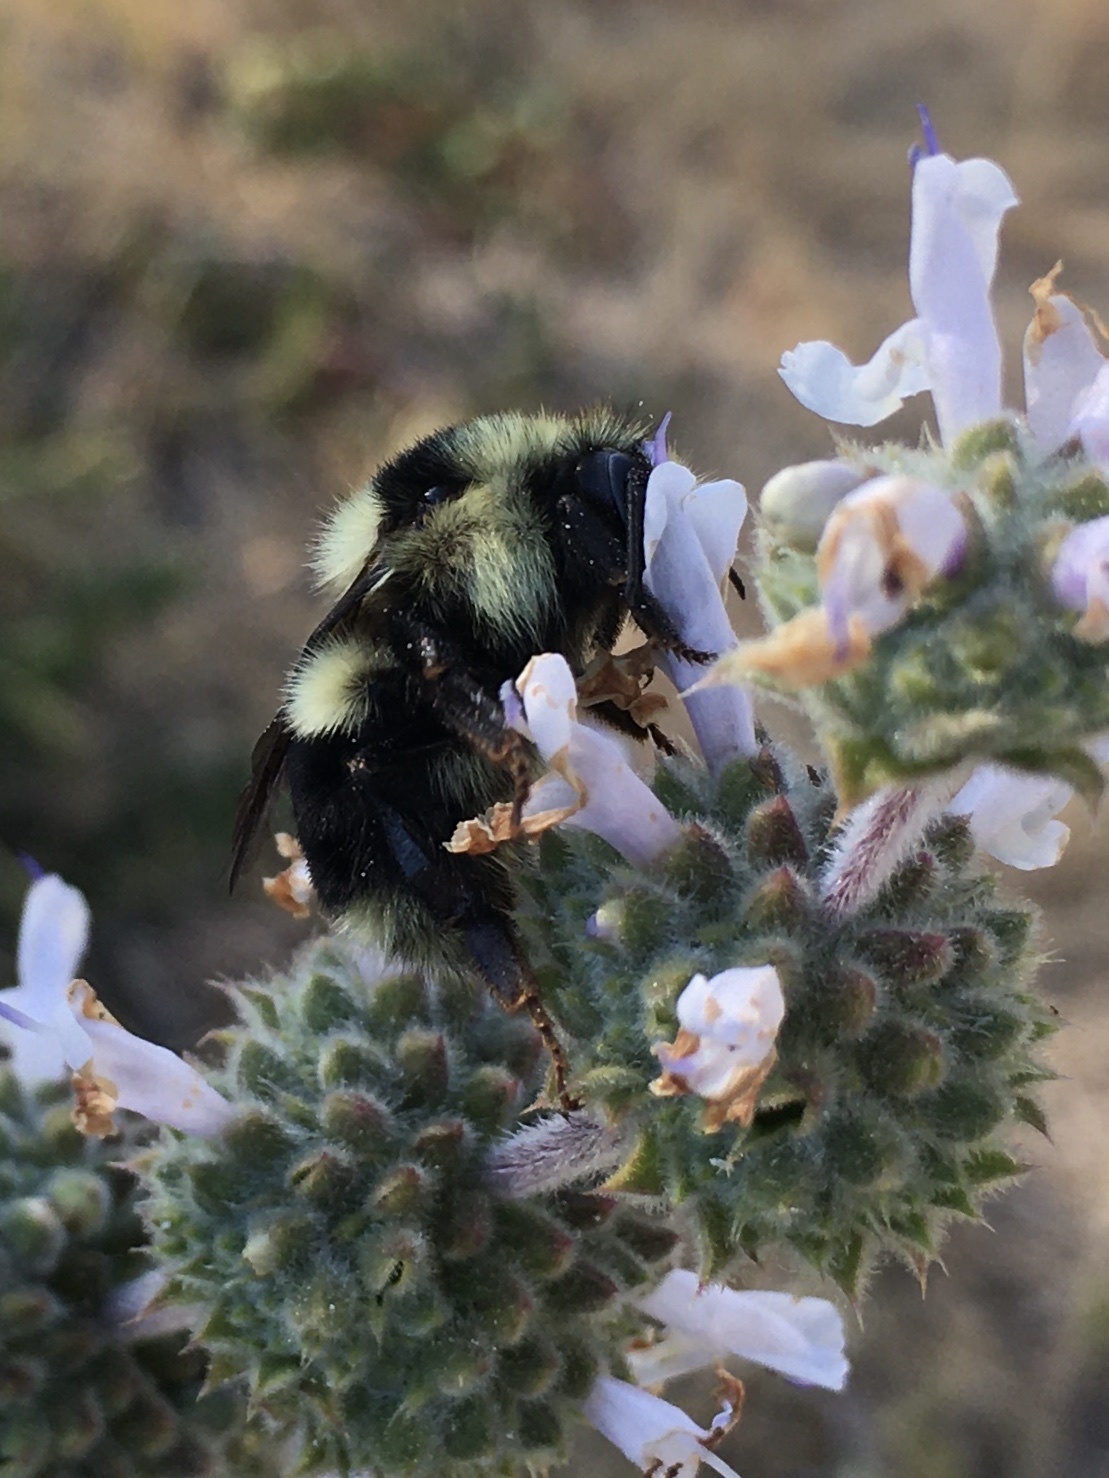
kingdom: Animalia
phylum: Arthropoda
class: Insecta
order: Hymenoptera
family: Apidae
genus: Bombus
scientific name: Bombus melanopygus
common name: Black tail bumble bee
